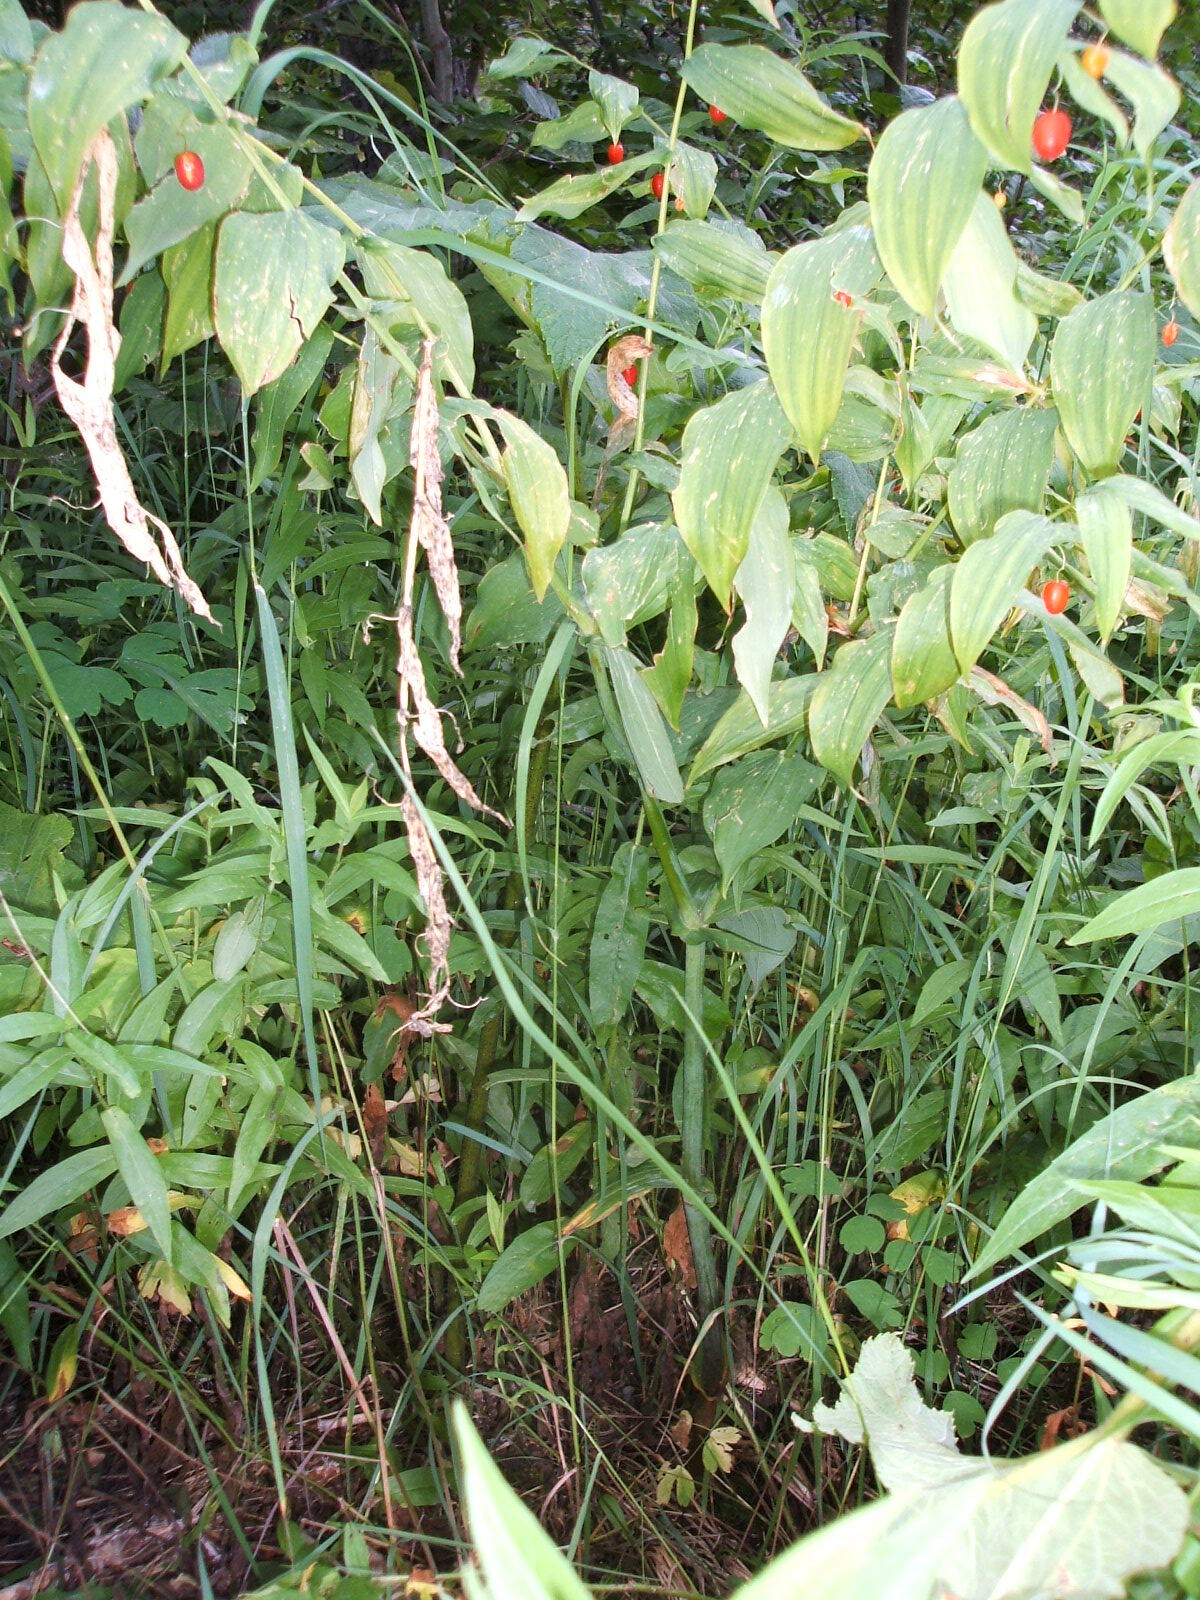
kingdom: Plantae
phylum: Tracheophyta
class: Liliopsida
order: Liliales
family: Liliaceae
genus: Streptopus
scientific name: Streptopus amplexifolius
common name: Clasp twisted stalk
